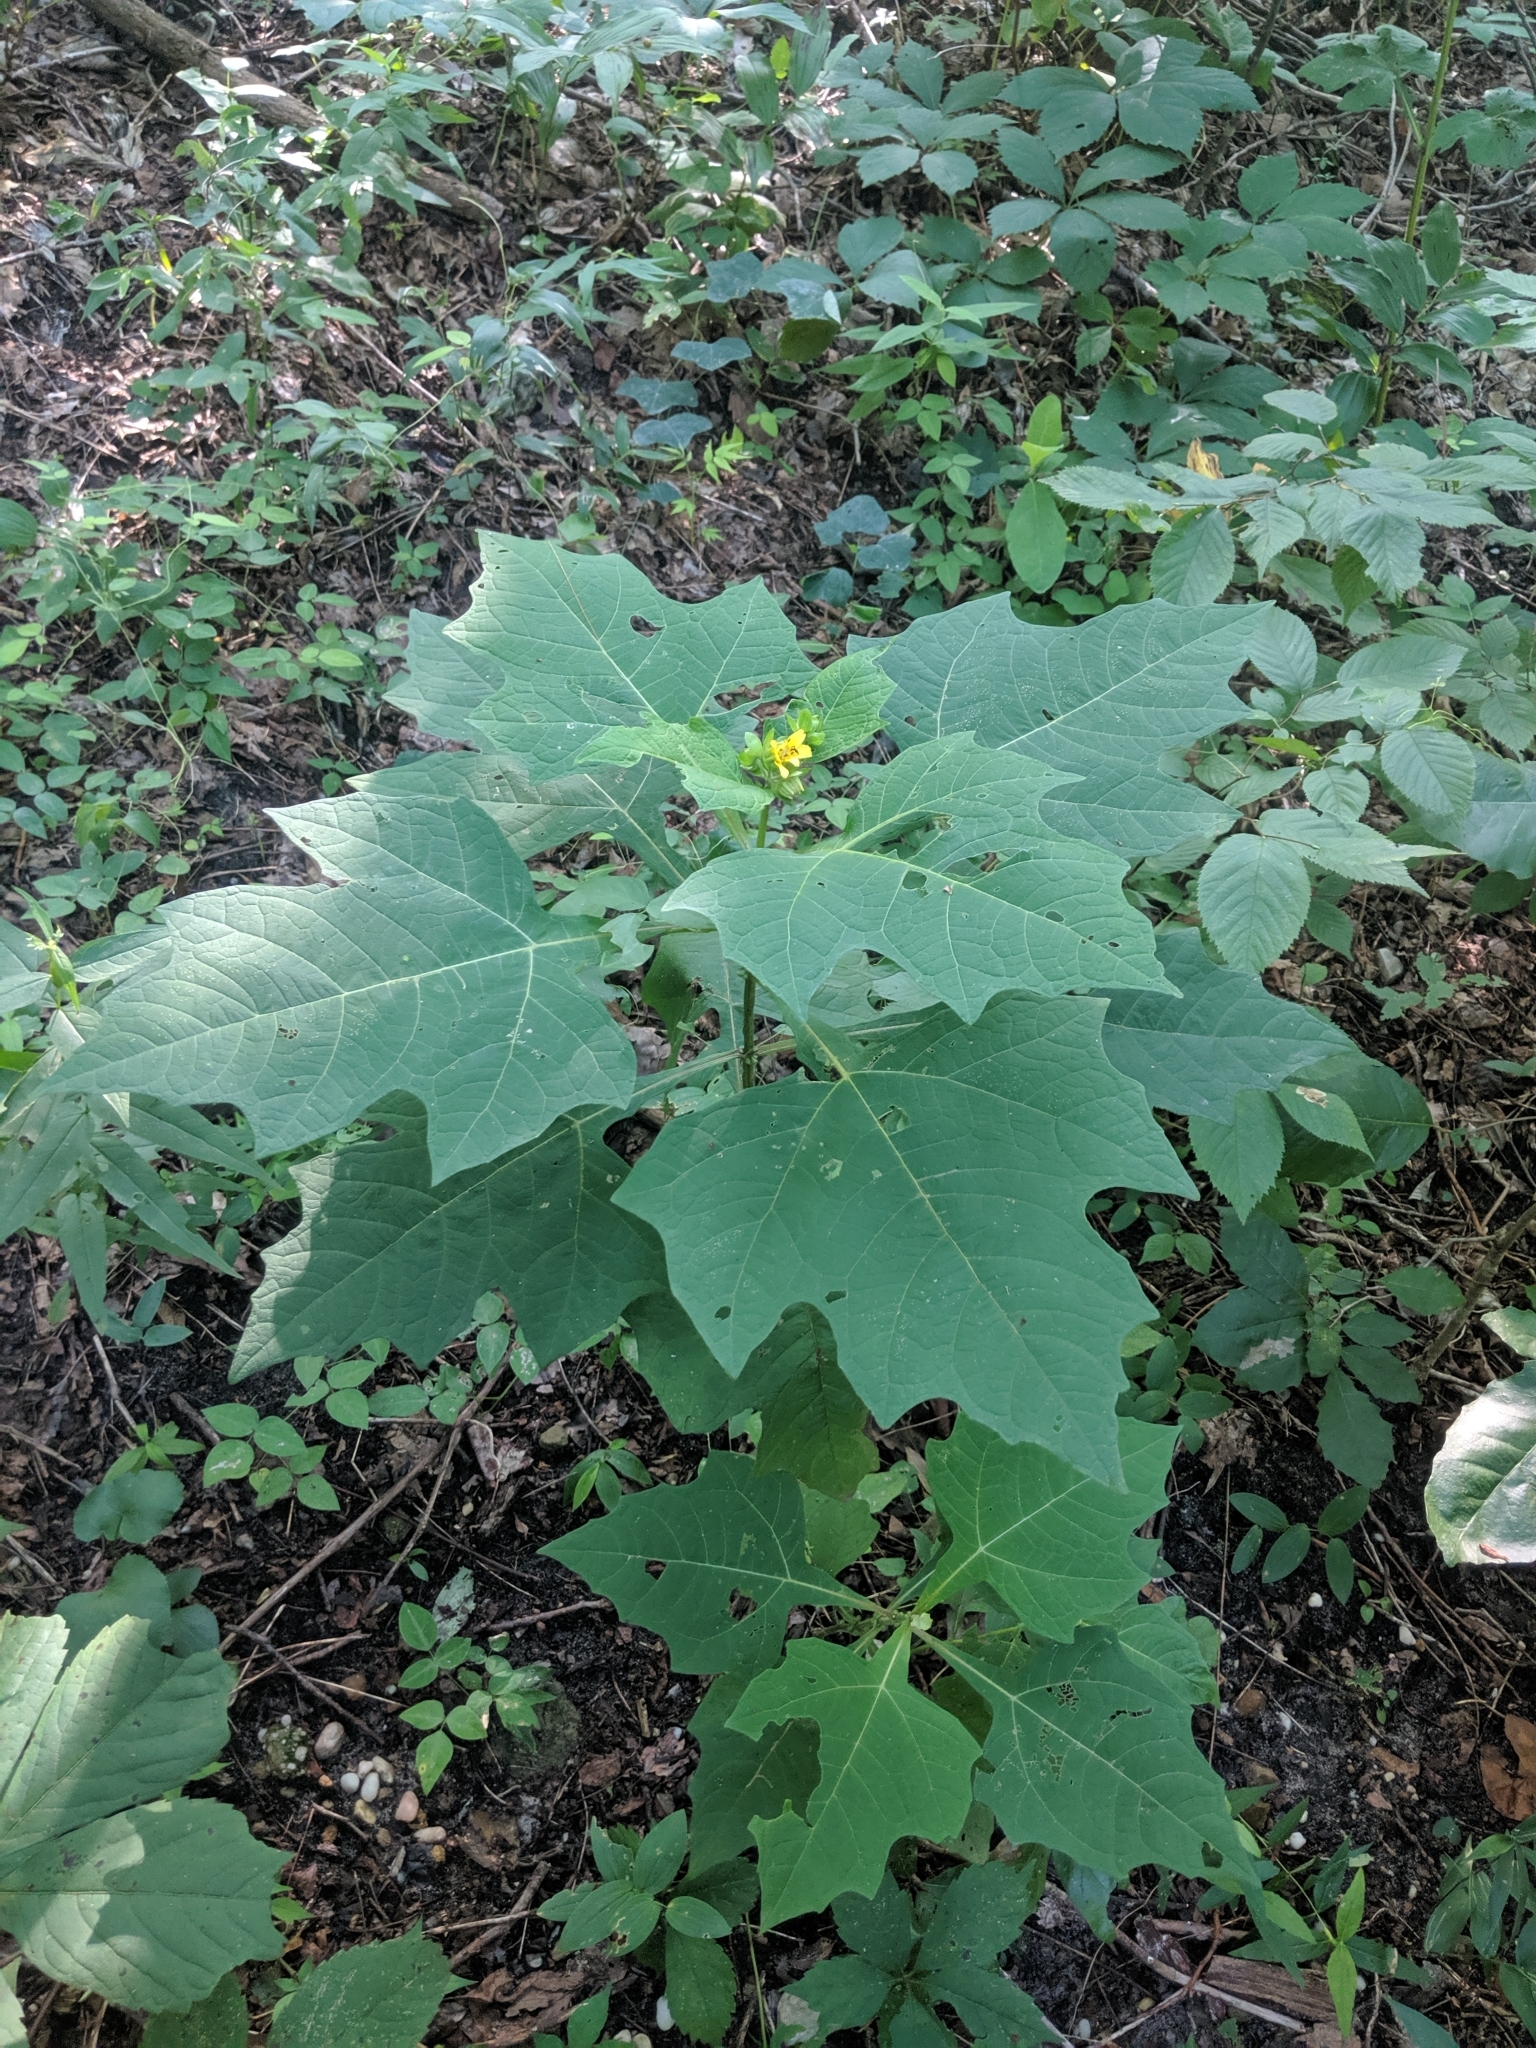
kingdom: Plantae
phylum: Tracheophyta
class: Magnoliopsida
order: Asterales
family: Asteraceae
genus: Smallanthus
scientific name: Smallanthus uvedalia
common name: Bear's-foot
